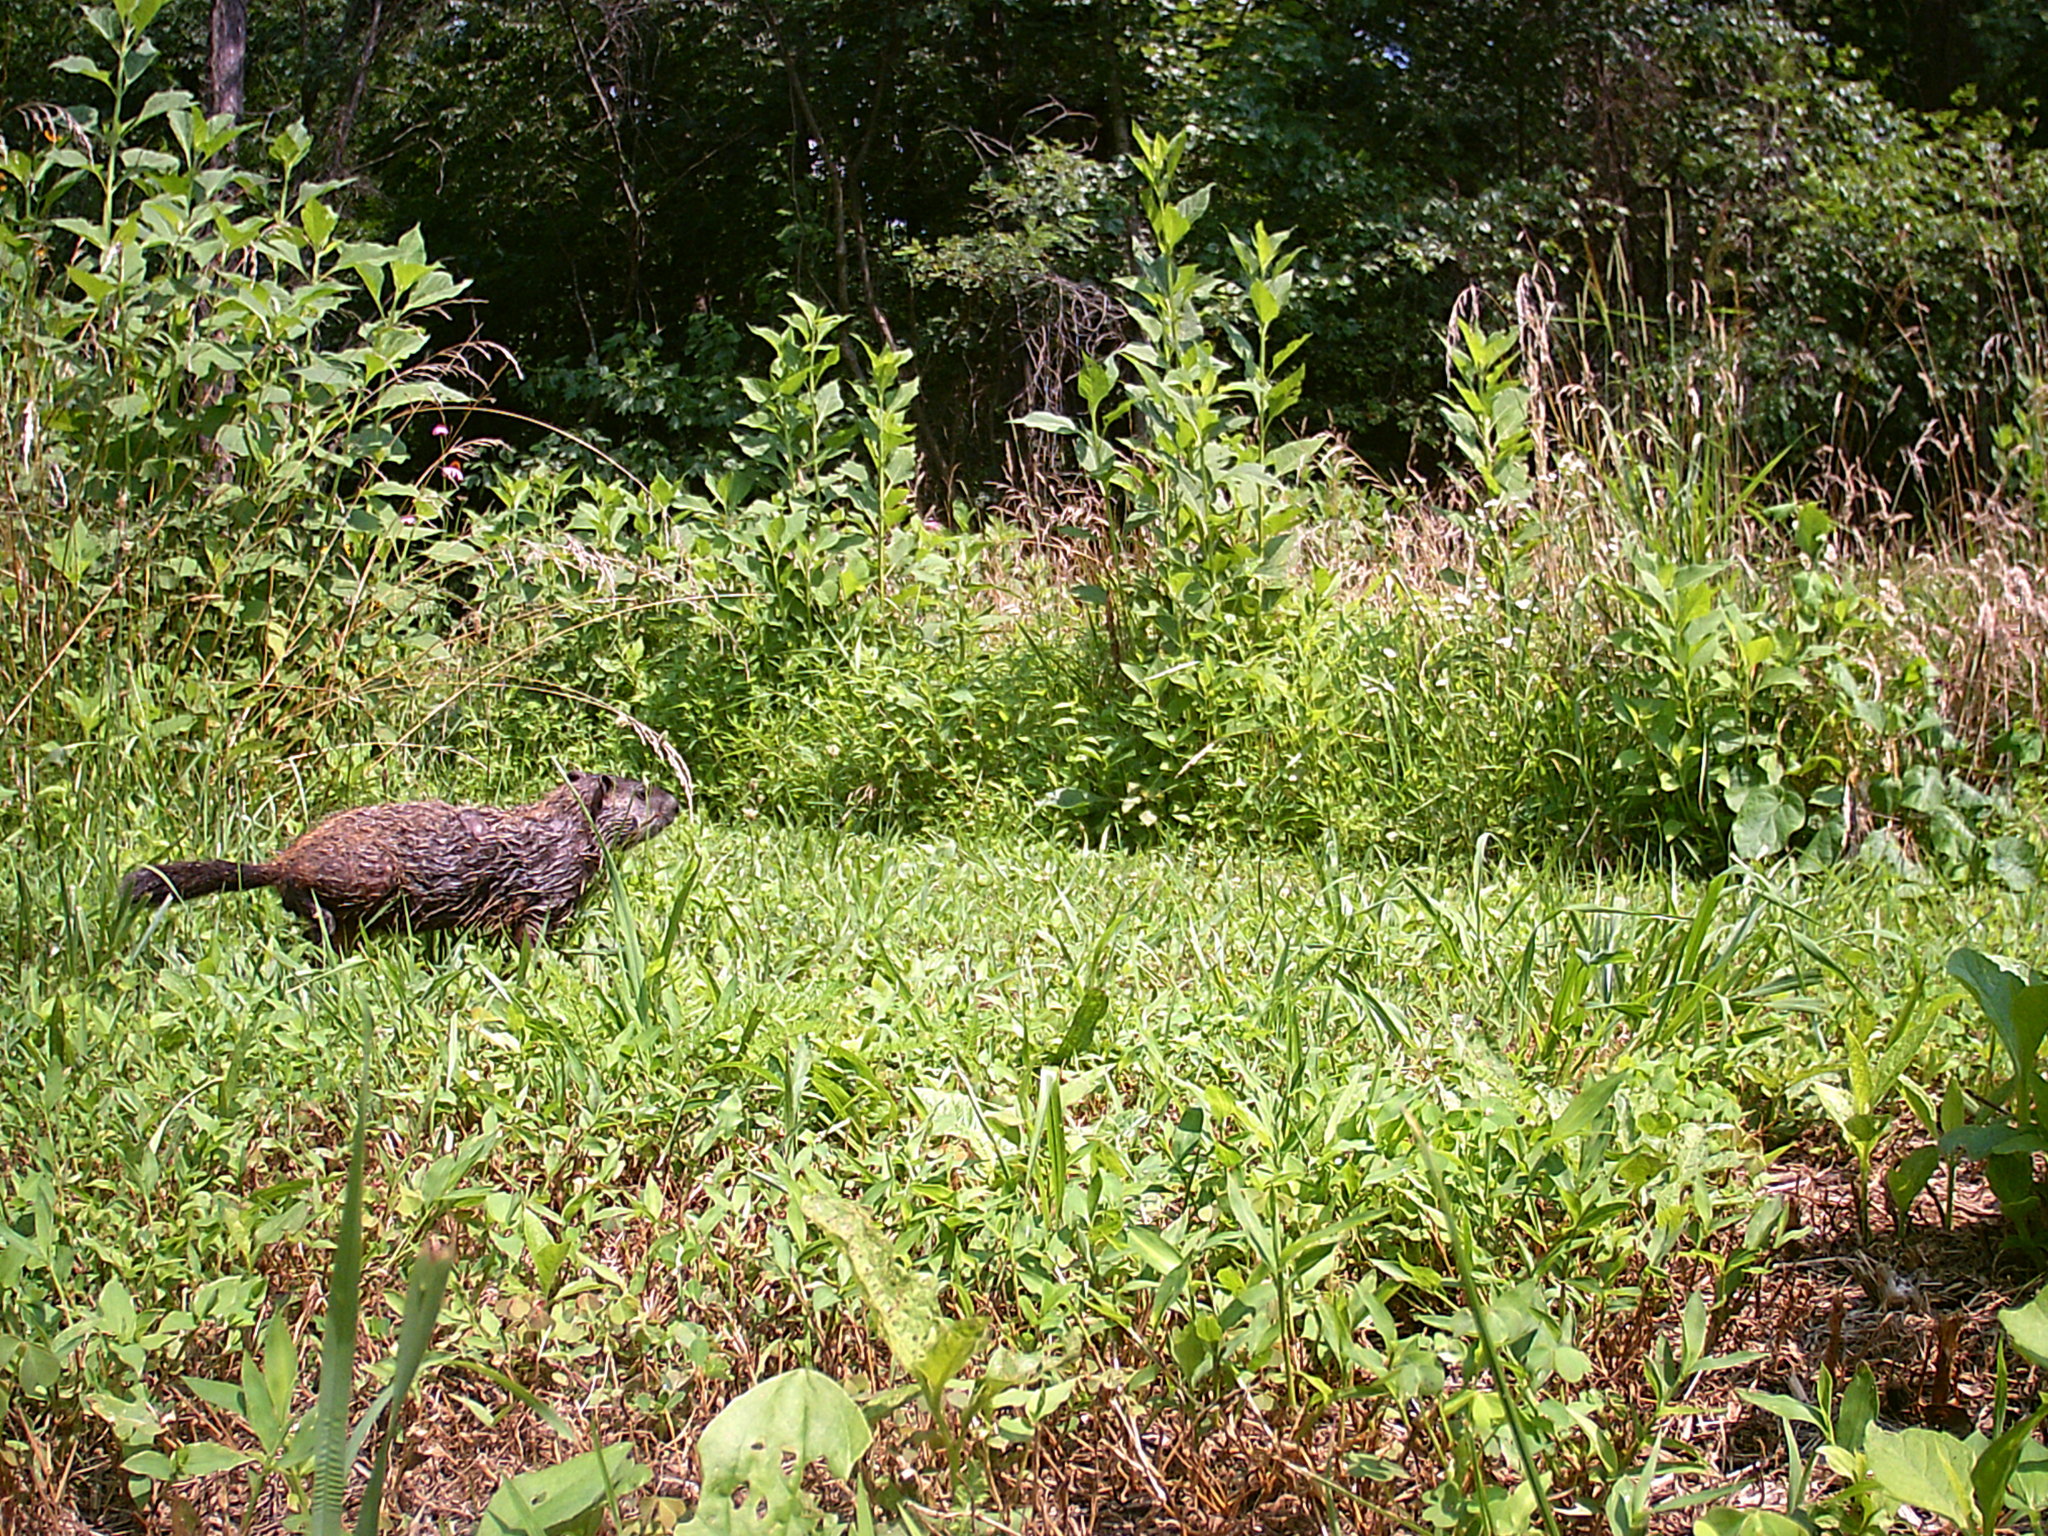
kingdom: Animalia
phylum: Chordata
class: Mammalia
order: Rodentia
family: Sciuridae
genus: Marmota
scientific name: Marmota monax
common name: Groundhog
